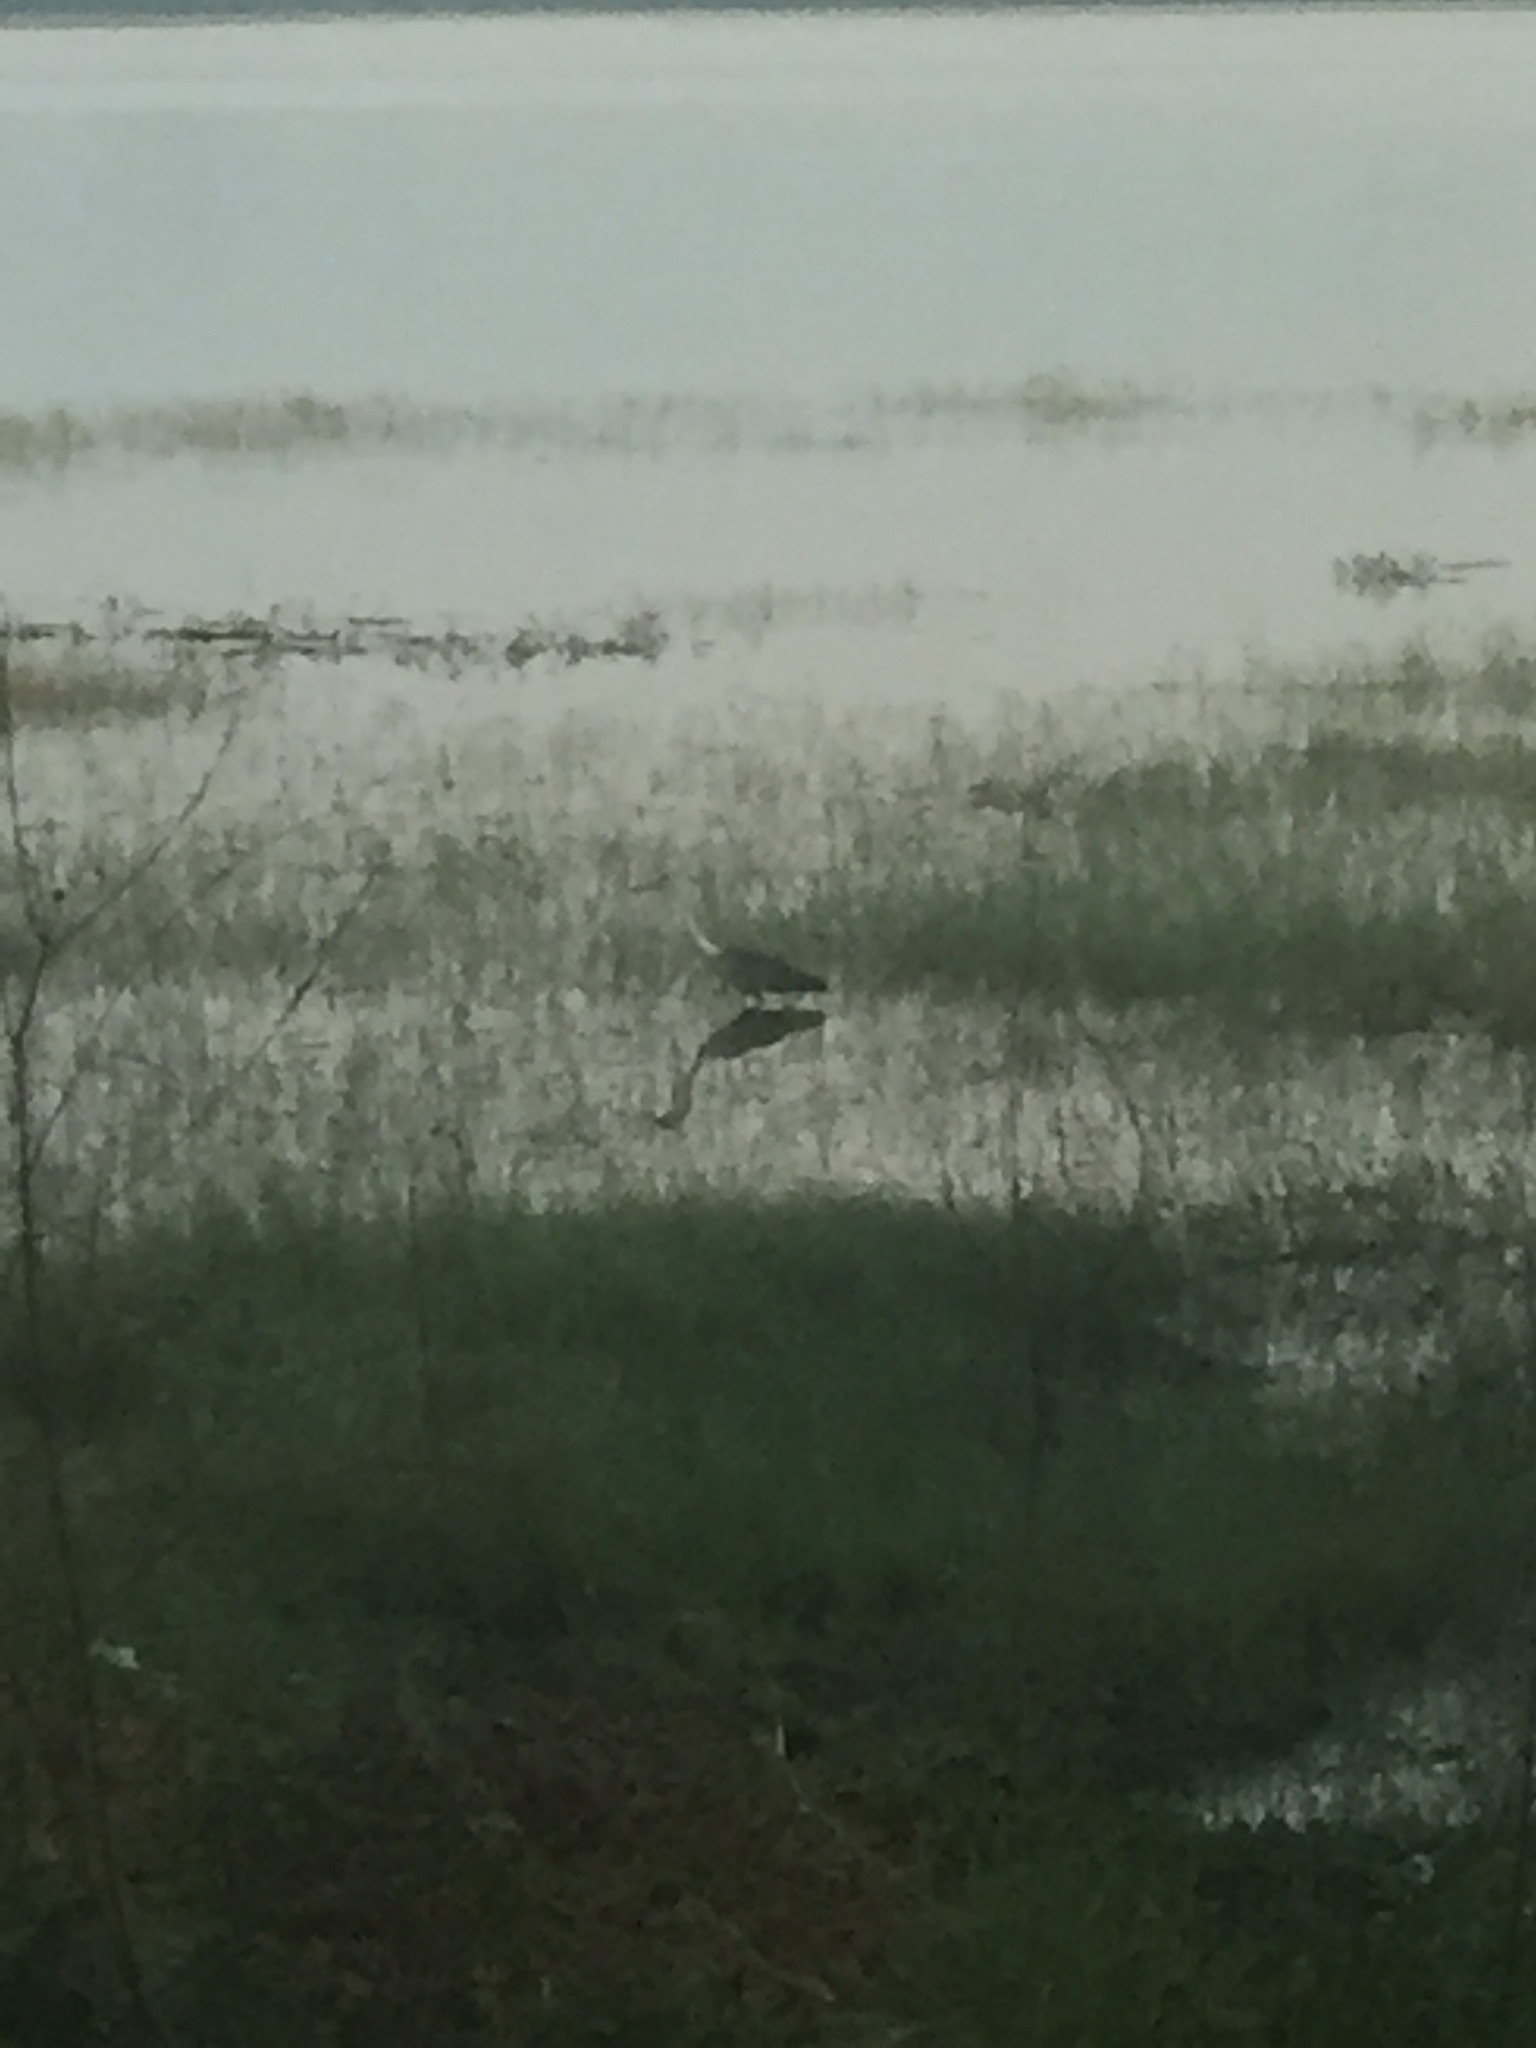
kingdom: Animalia
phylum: Chordata
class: Aves
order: Pelecaniformes
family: Ardeidae
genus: Ardea
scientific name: Ardea cinerea
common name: Grey heron
